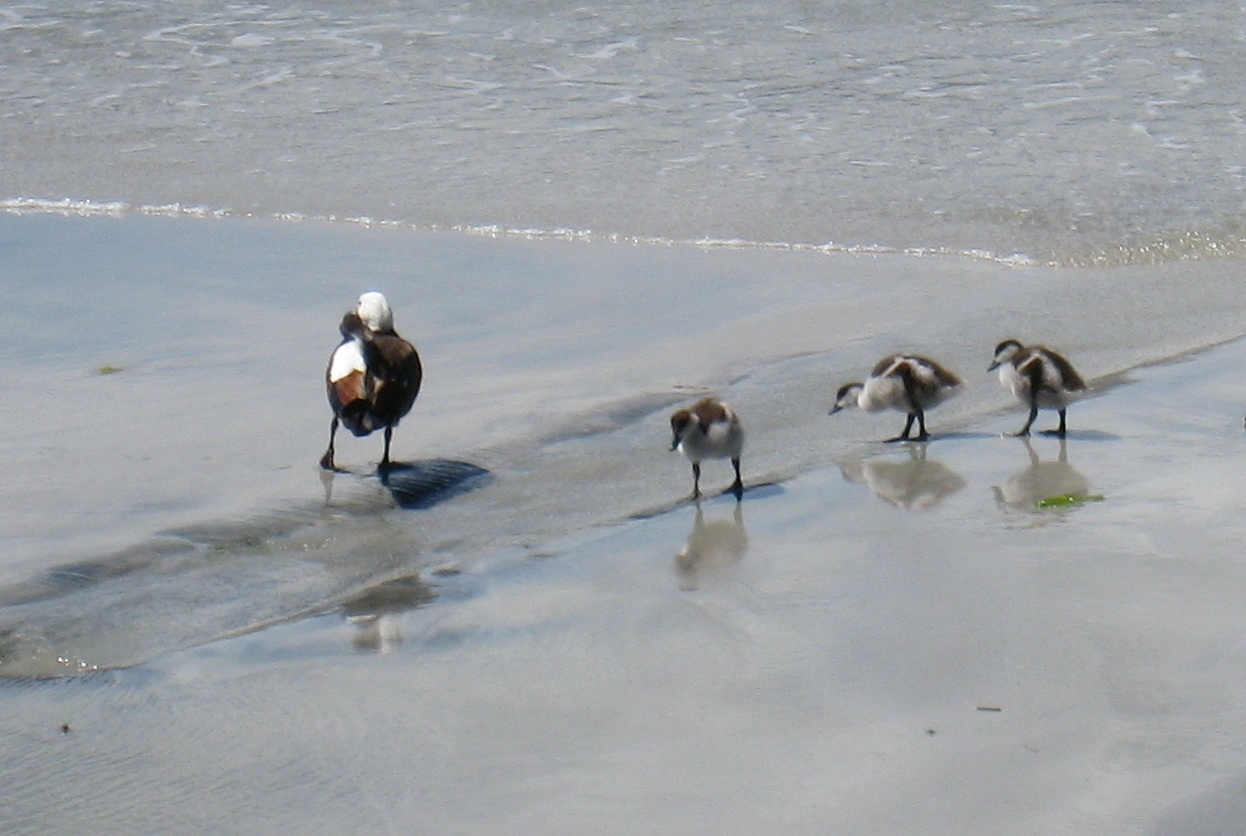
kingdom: Animalia
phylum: Chordata
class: Aves
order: Anseriformes
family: Anatidae
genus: Tadorna
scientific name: Tadorna variegata
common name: Paradise shelduck
